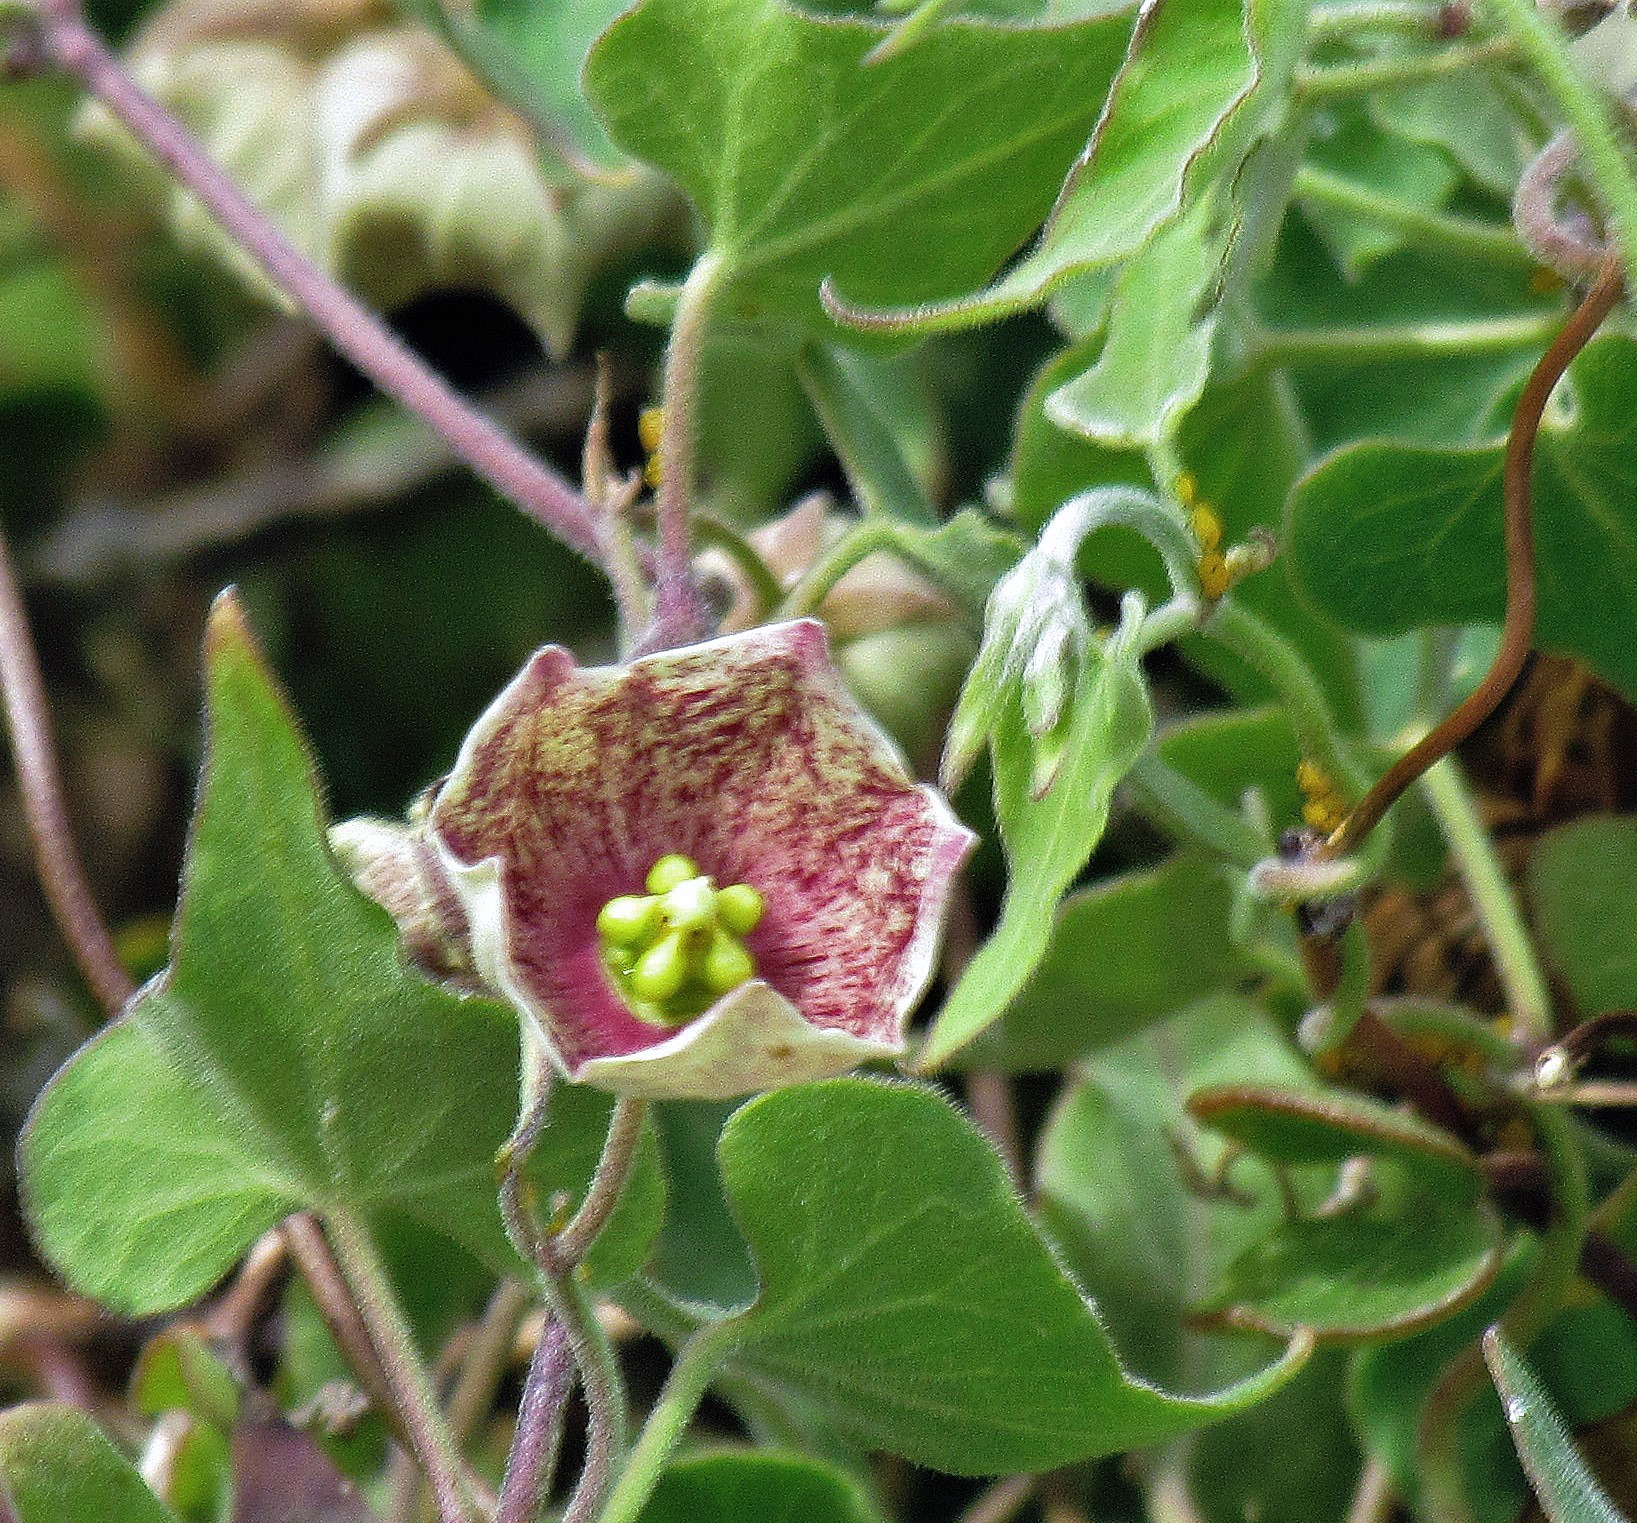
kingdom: Plantae
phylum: Tracheophyta
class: Magnoliopsida
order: Gentianales
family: Apocynaceae
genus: Philibertia
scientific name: Philibertia gilliesii
